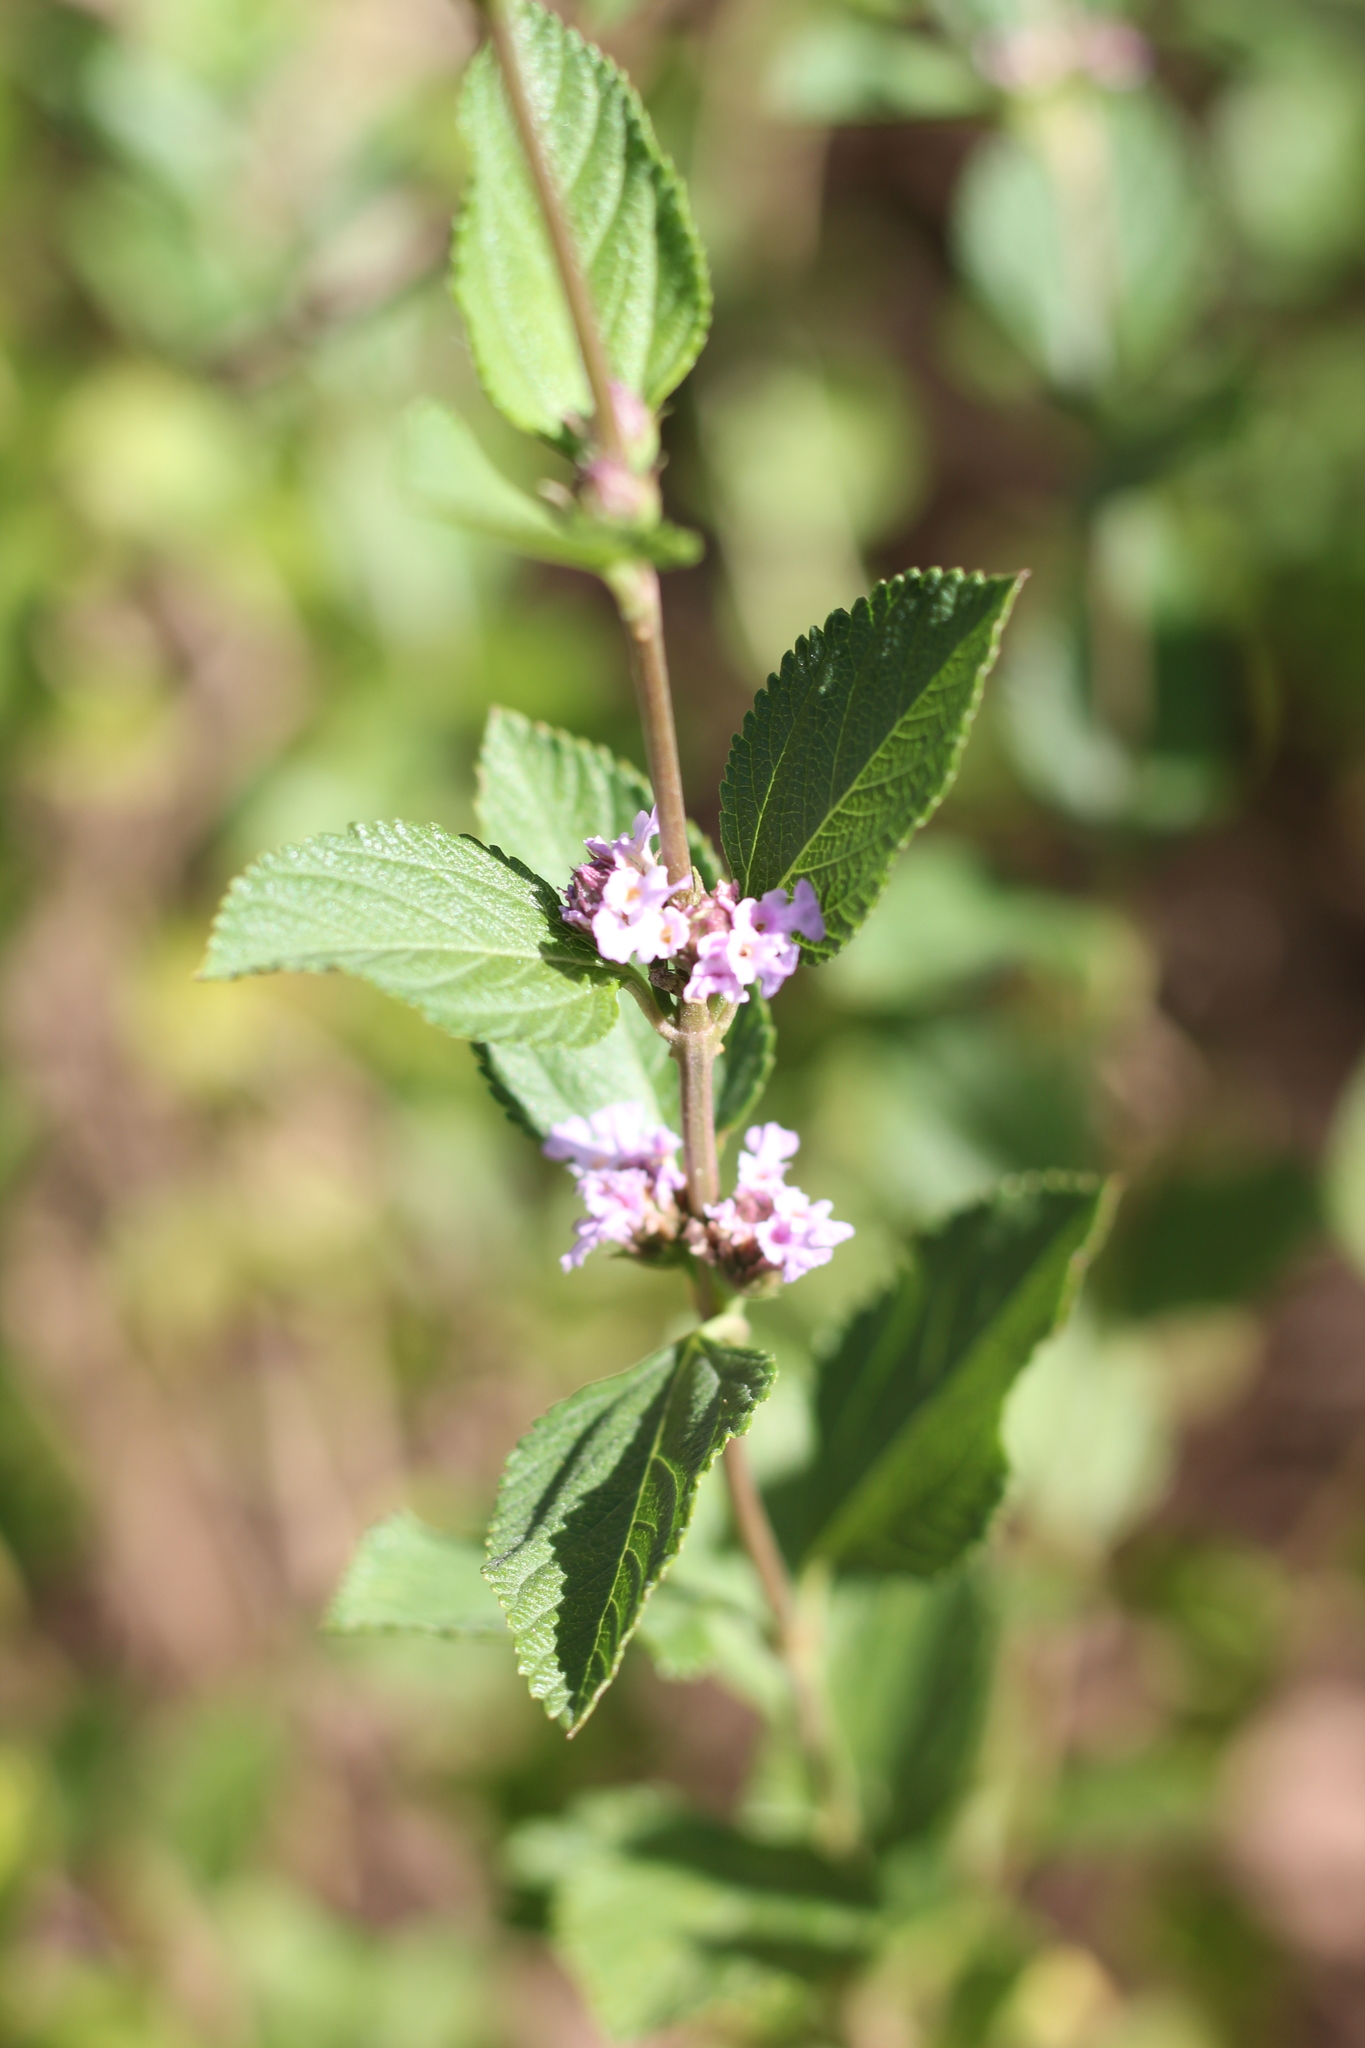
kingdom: Plantae
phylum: Tracheophyta
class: Magnoliopsida
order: Lamiales
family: Verbenaceae
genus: Lippia
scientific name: Lippia alba
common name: Bushy matgrass
